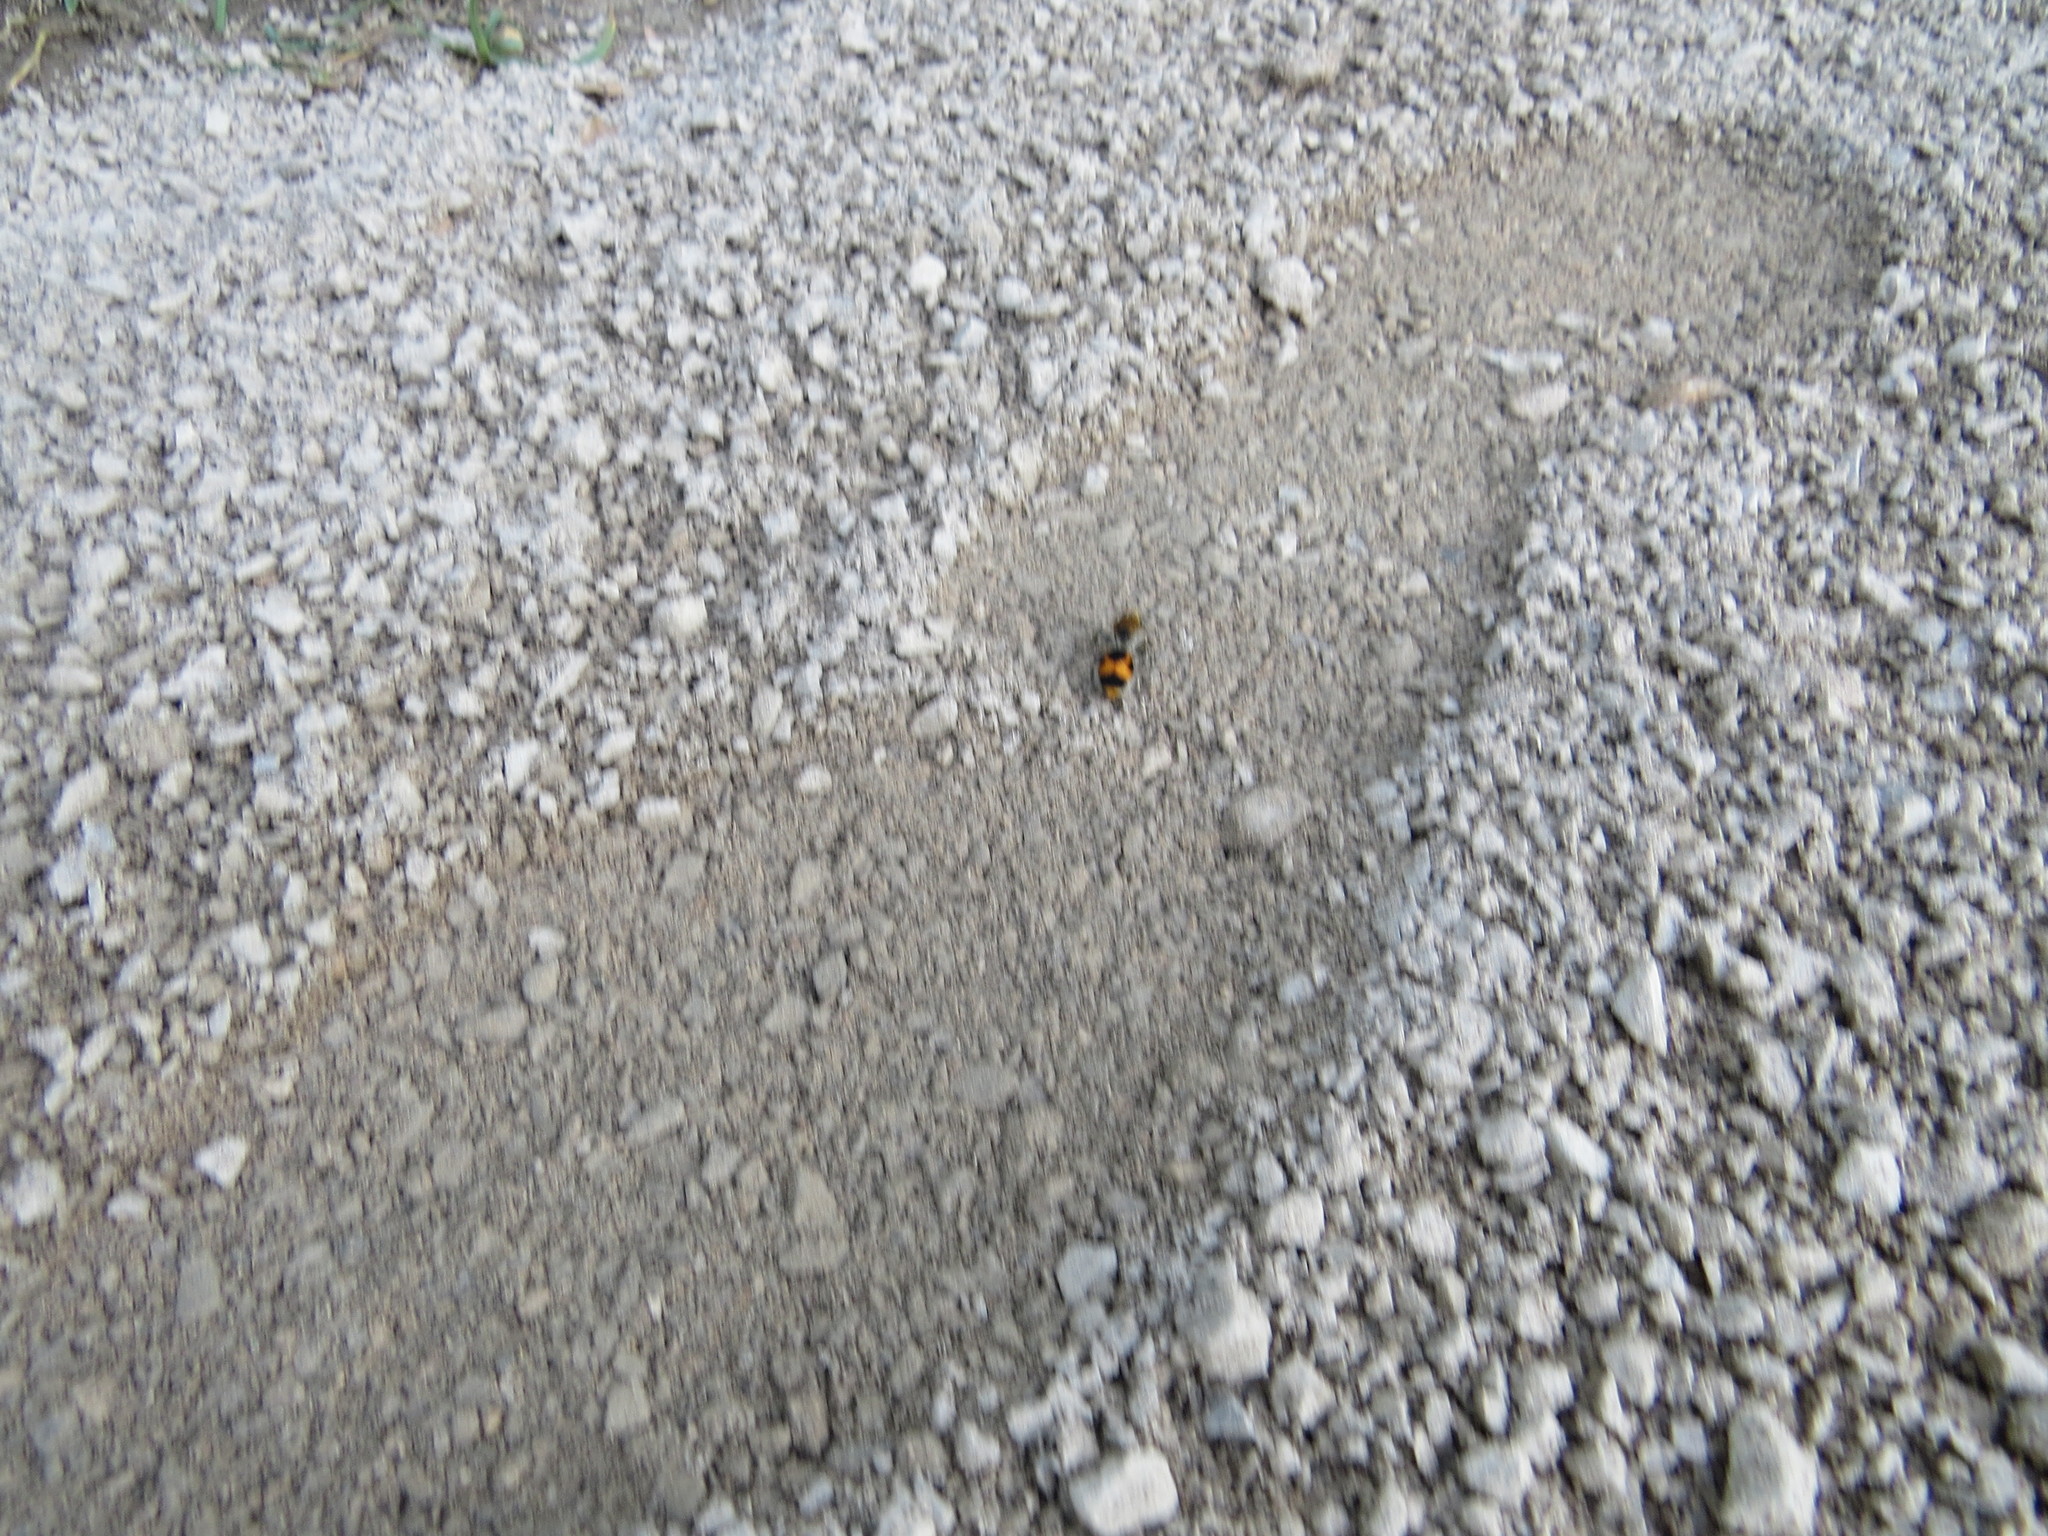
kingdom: Animalia
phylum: Arthropoda
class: Insecta
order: Hymenoptera
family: Mutillidae
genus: Dasymutilla
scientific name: Dasymutilla pulchra
